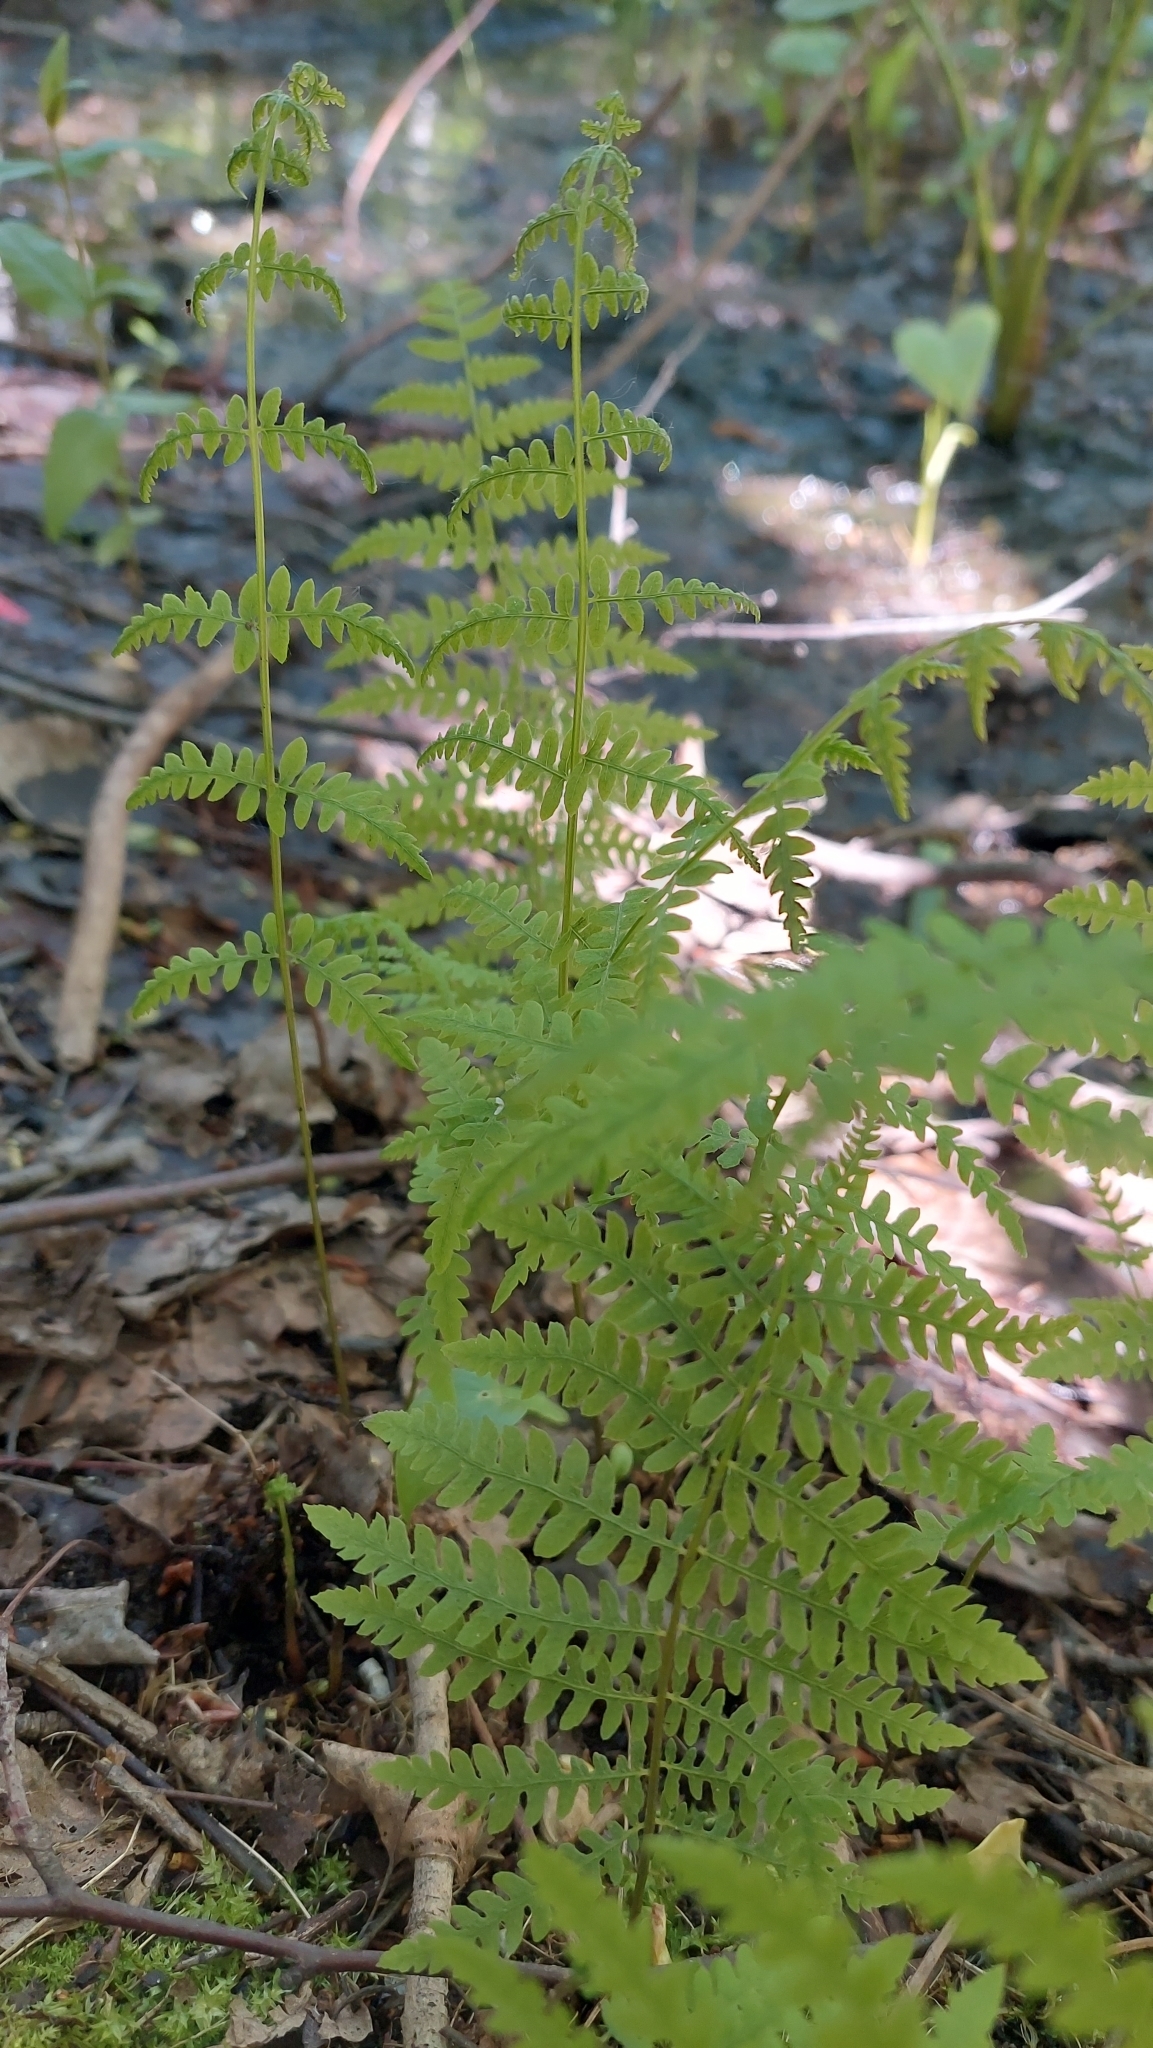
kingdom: Plantae
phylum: Tracheophyta
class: Polypodiopsida
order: Polypodiales
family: Thelypteridaceae
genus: Thelypteris
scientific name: Thelypteris palustris
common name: Marsh fern
